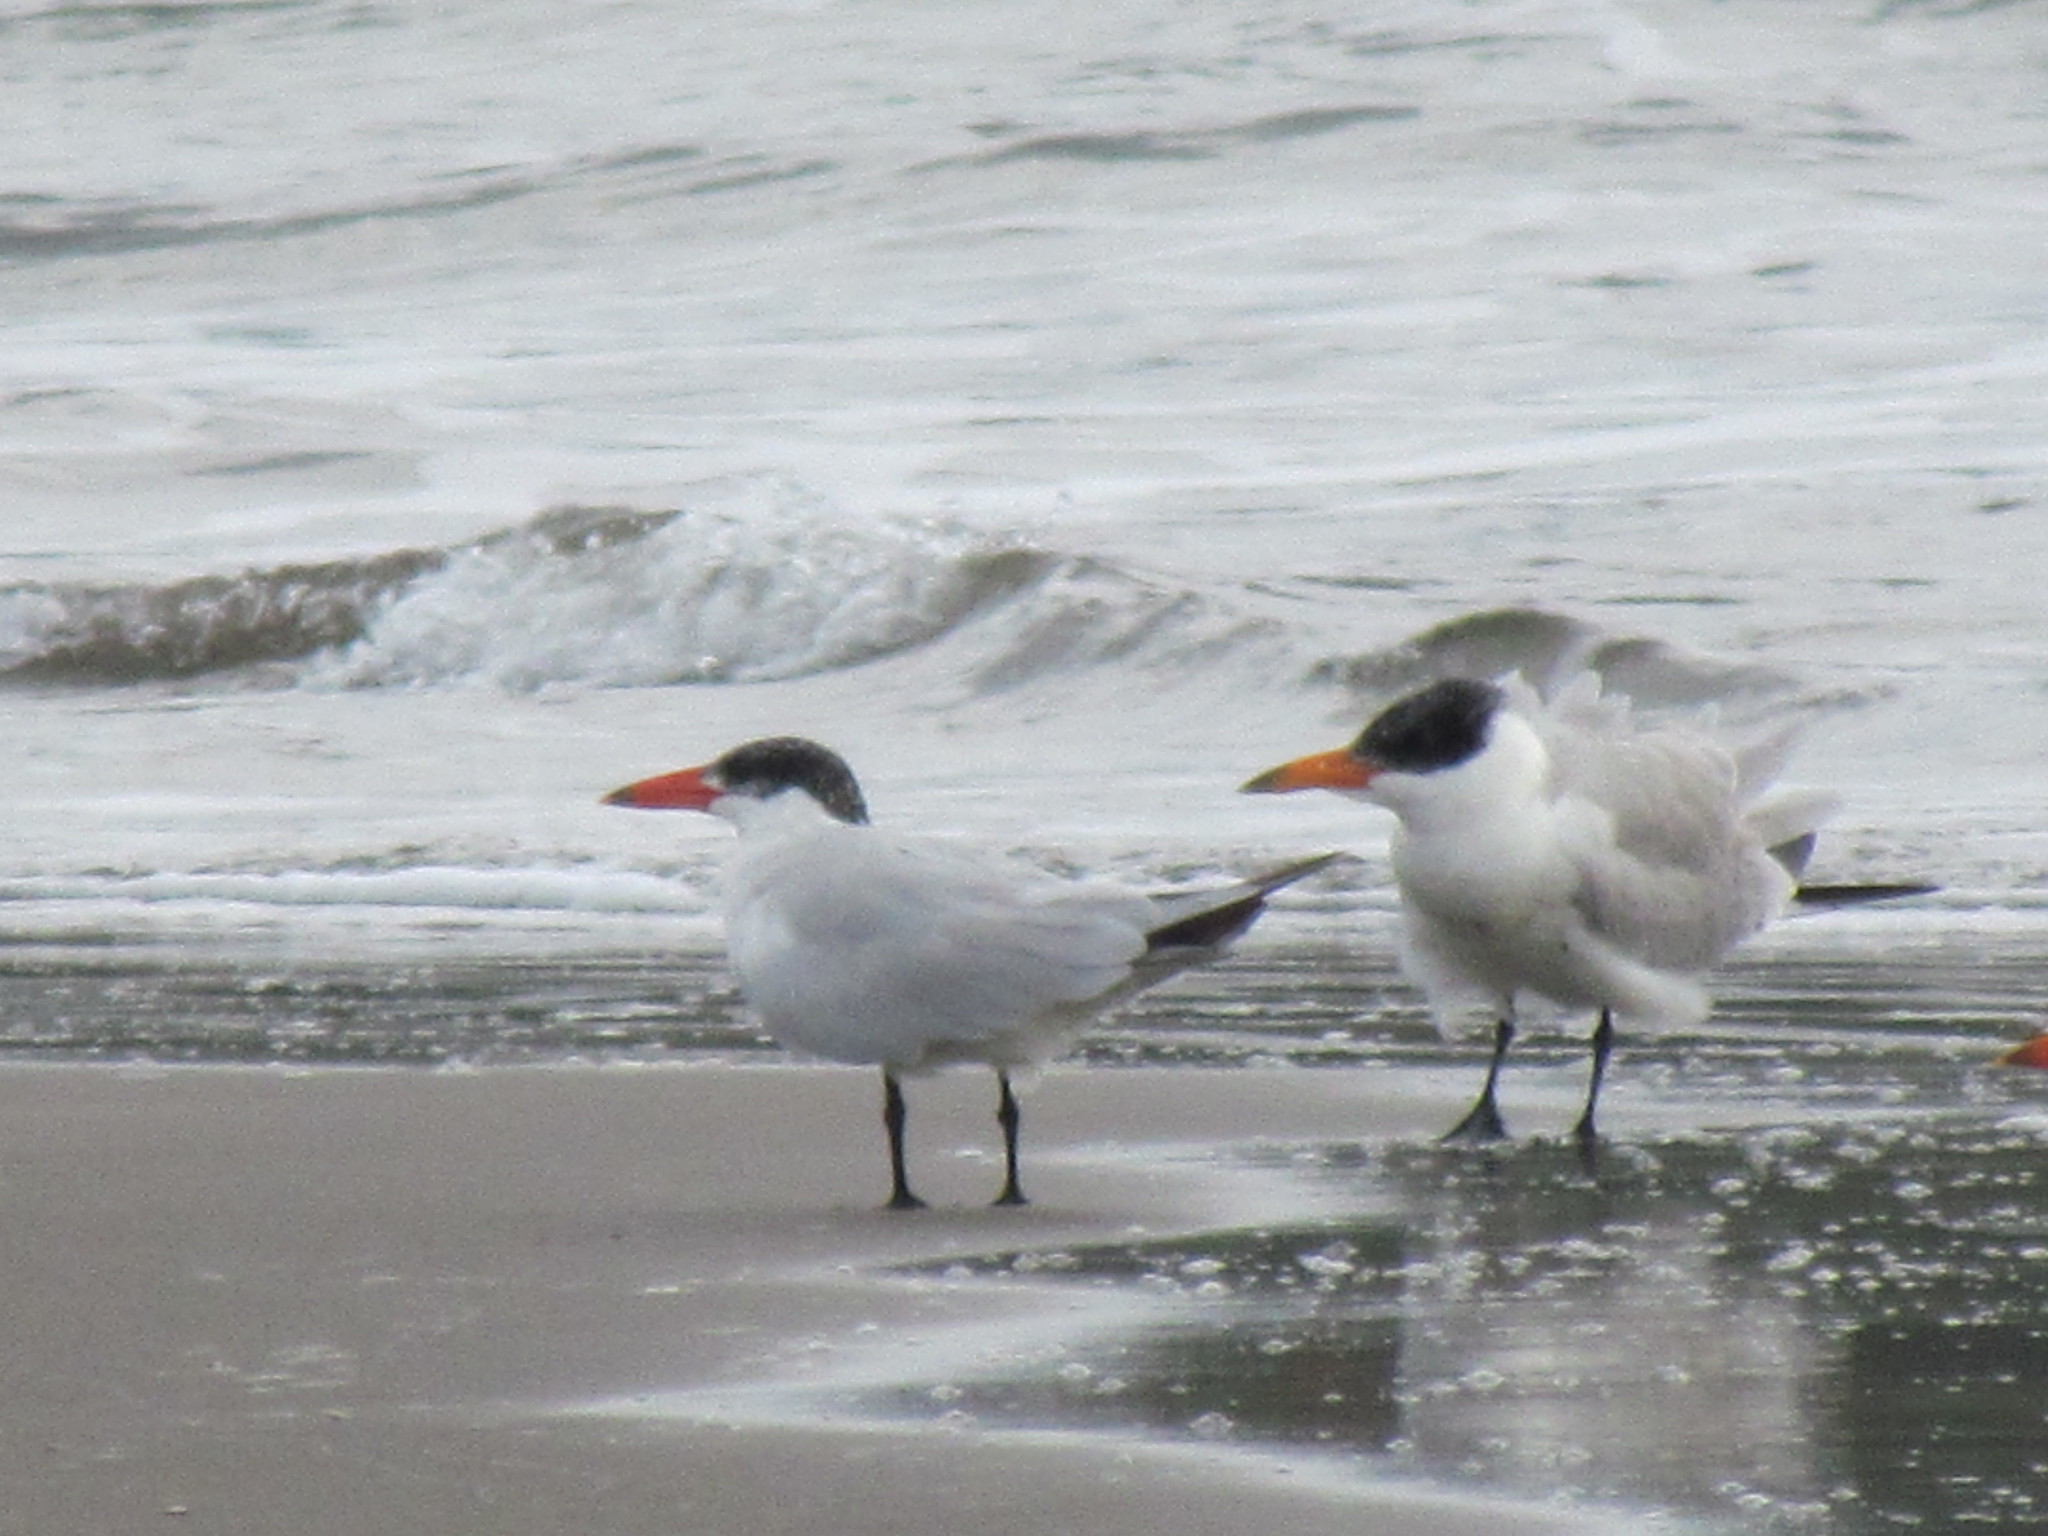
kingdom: Animalia
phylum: Chordata
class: Aves
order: Charadriiformes
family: Laridae
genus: Hydroprogne
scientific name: Hydroprogne caspia
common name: Caspian tern
